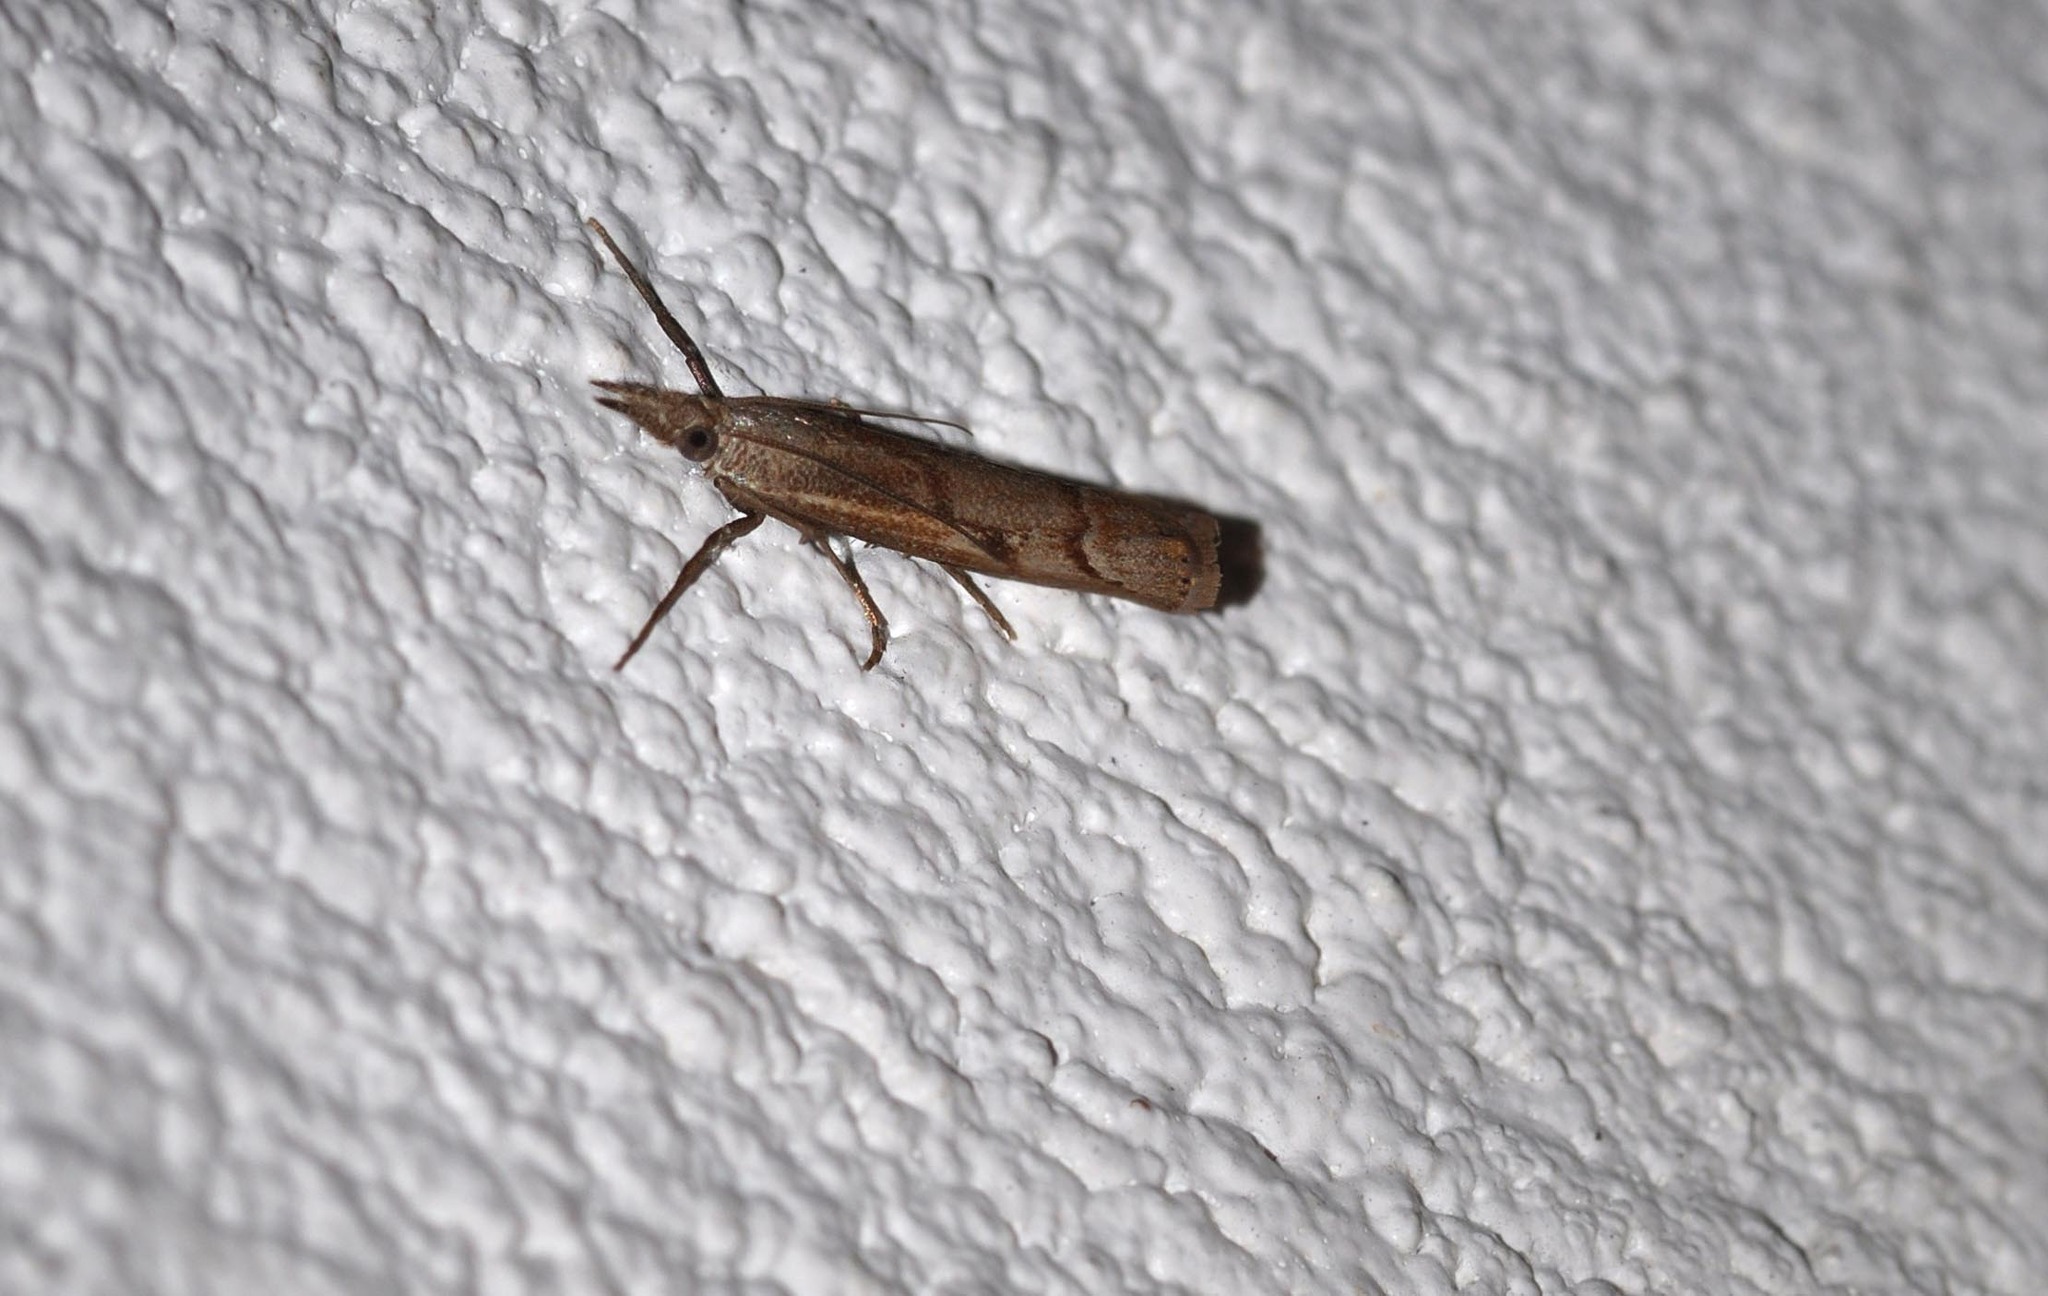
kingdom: Animalia
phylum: Arthropoda
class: Insecta
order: Lepidoptera
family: Crambidae
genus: Agriphila
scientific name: Agriphila geniculea
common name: Elbow-stripe grass-veneer
